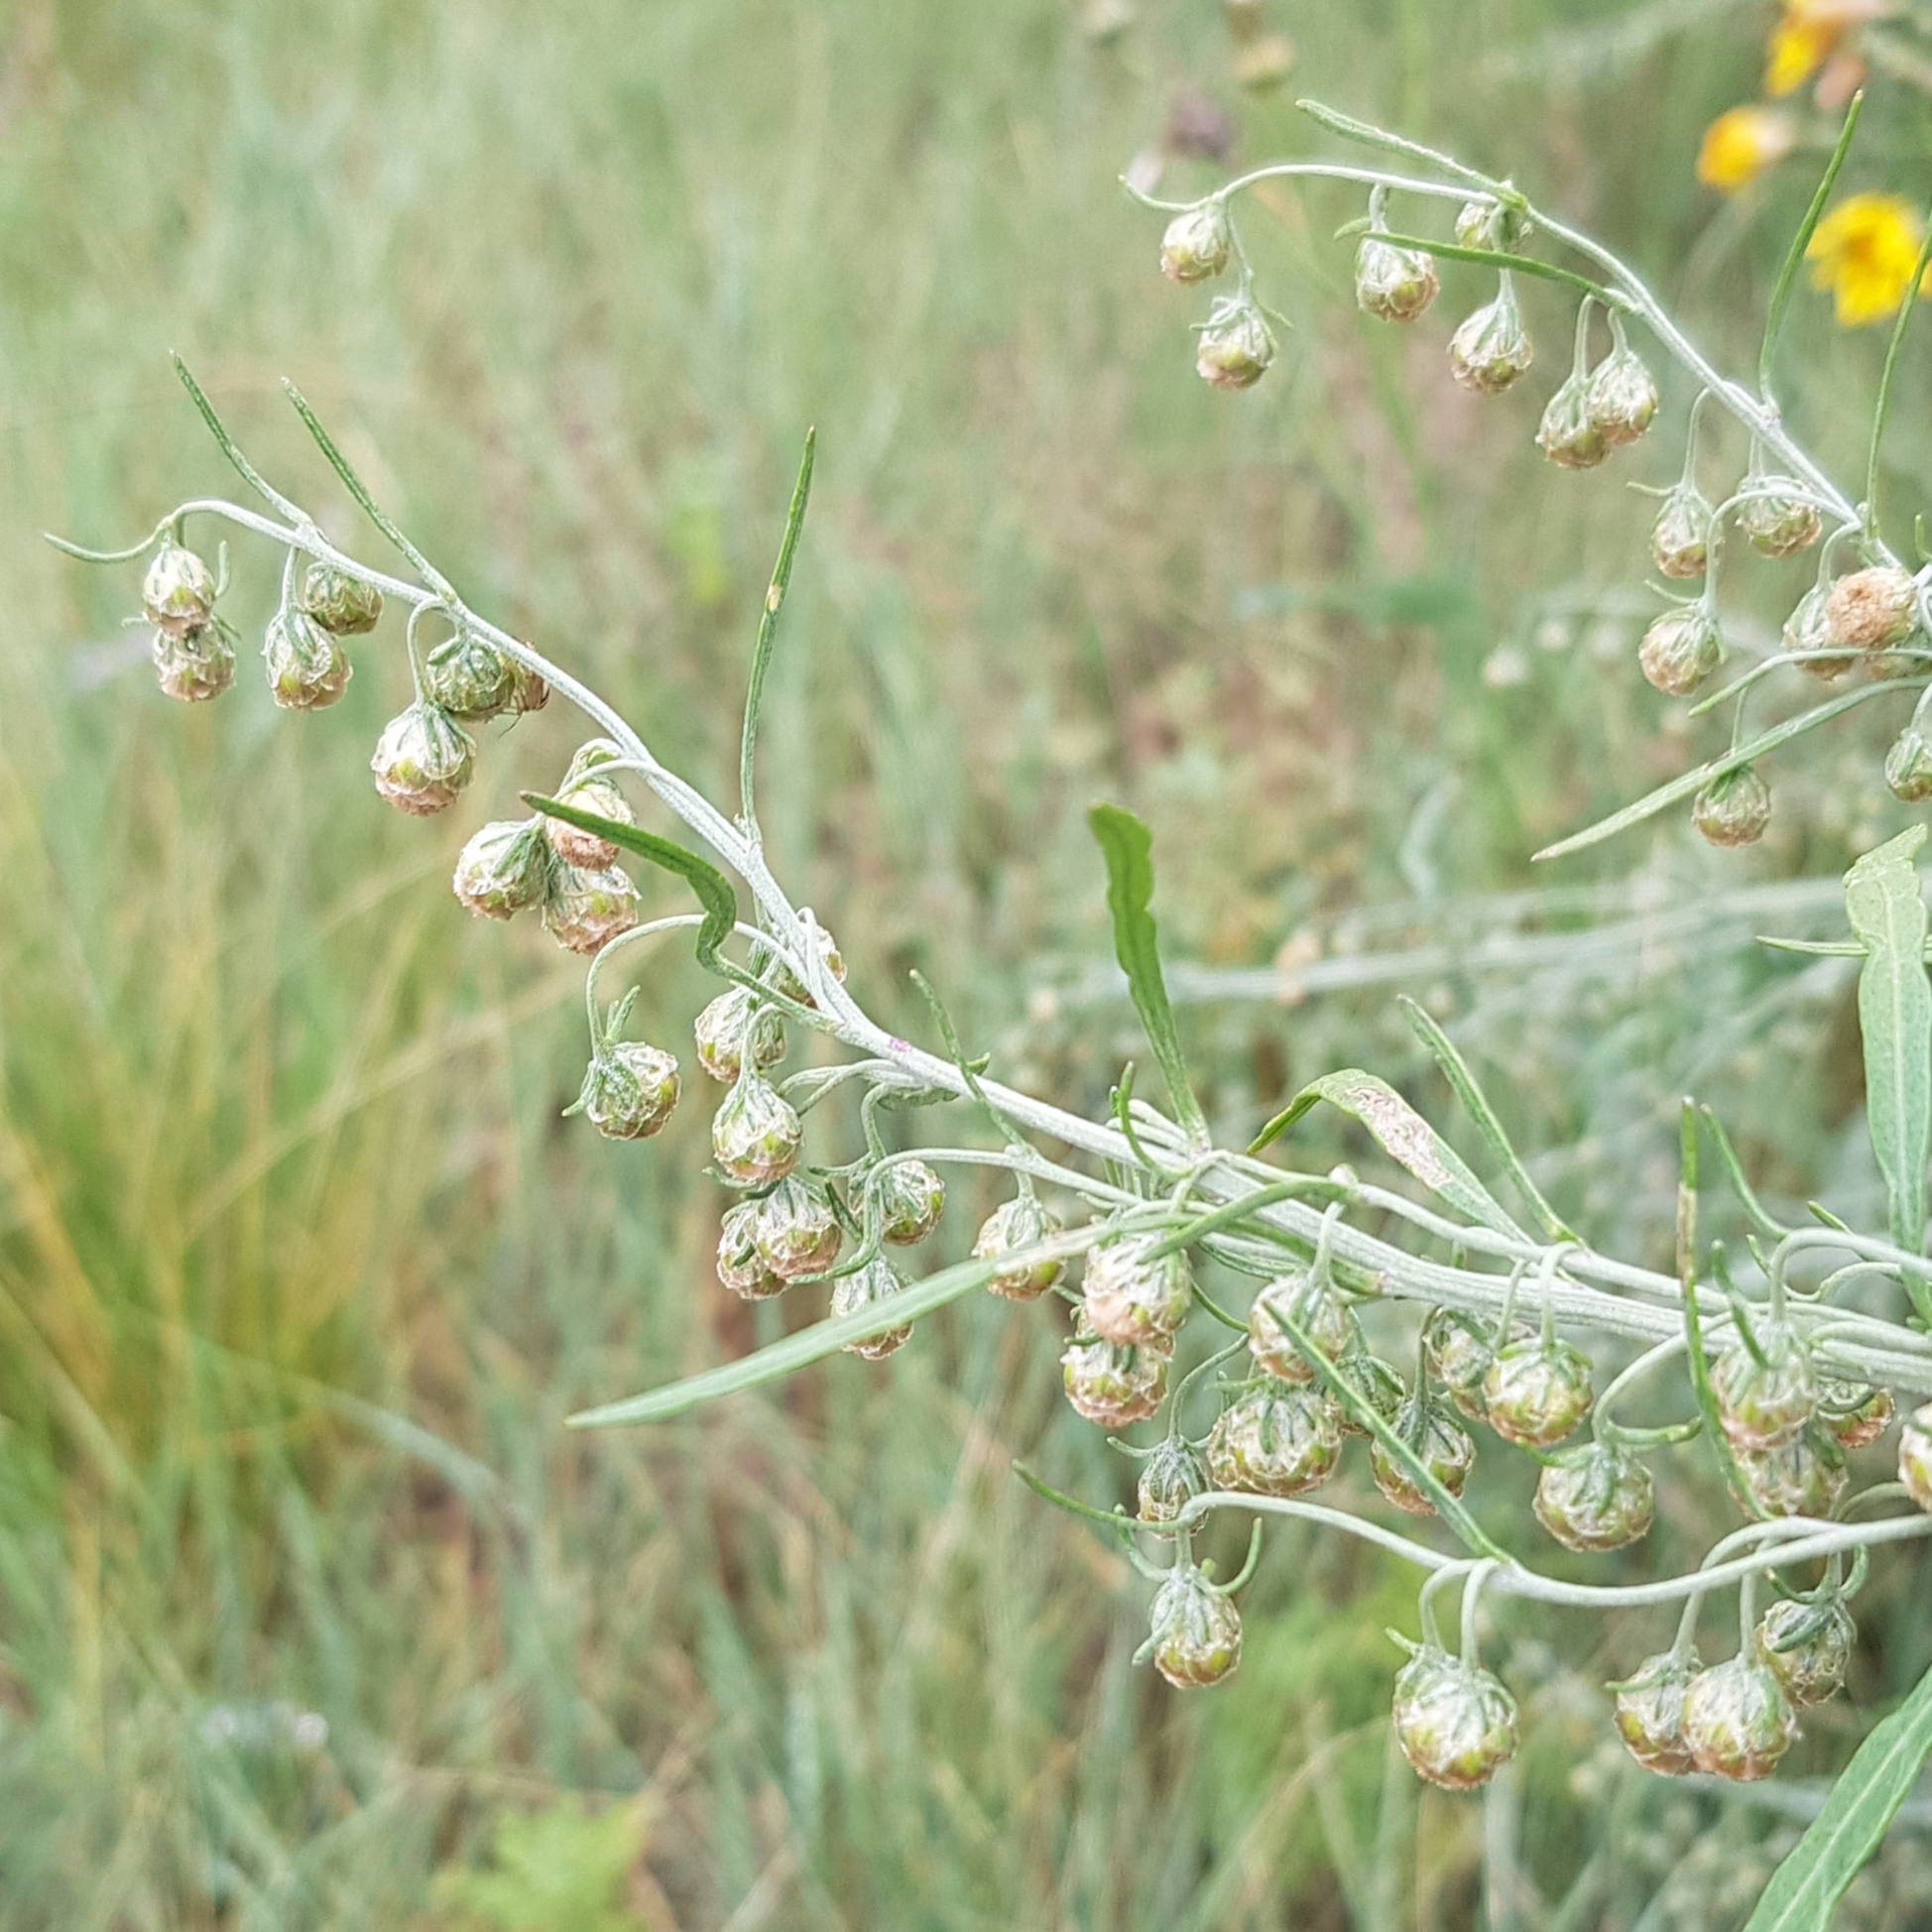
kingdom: Plantae
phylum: Tracheophyta
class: Magnoliopsida
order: Asterales
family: Asteraceae
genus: Artemisia
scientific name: Artemisia macrocephala
